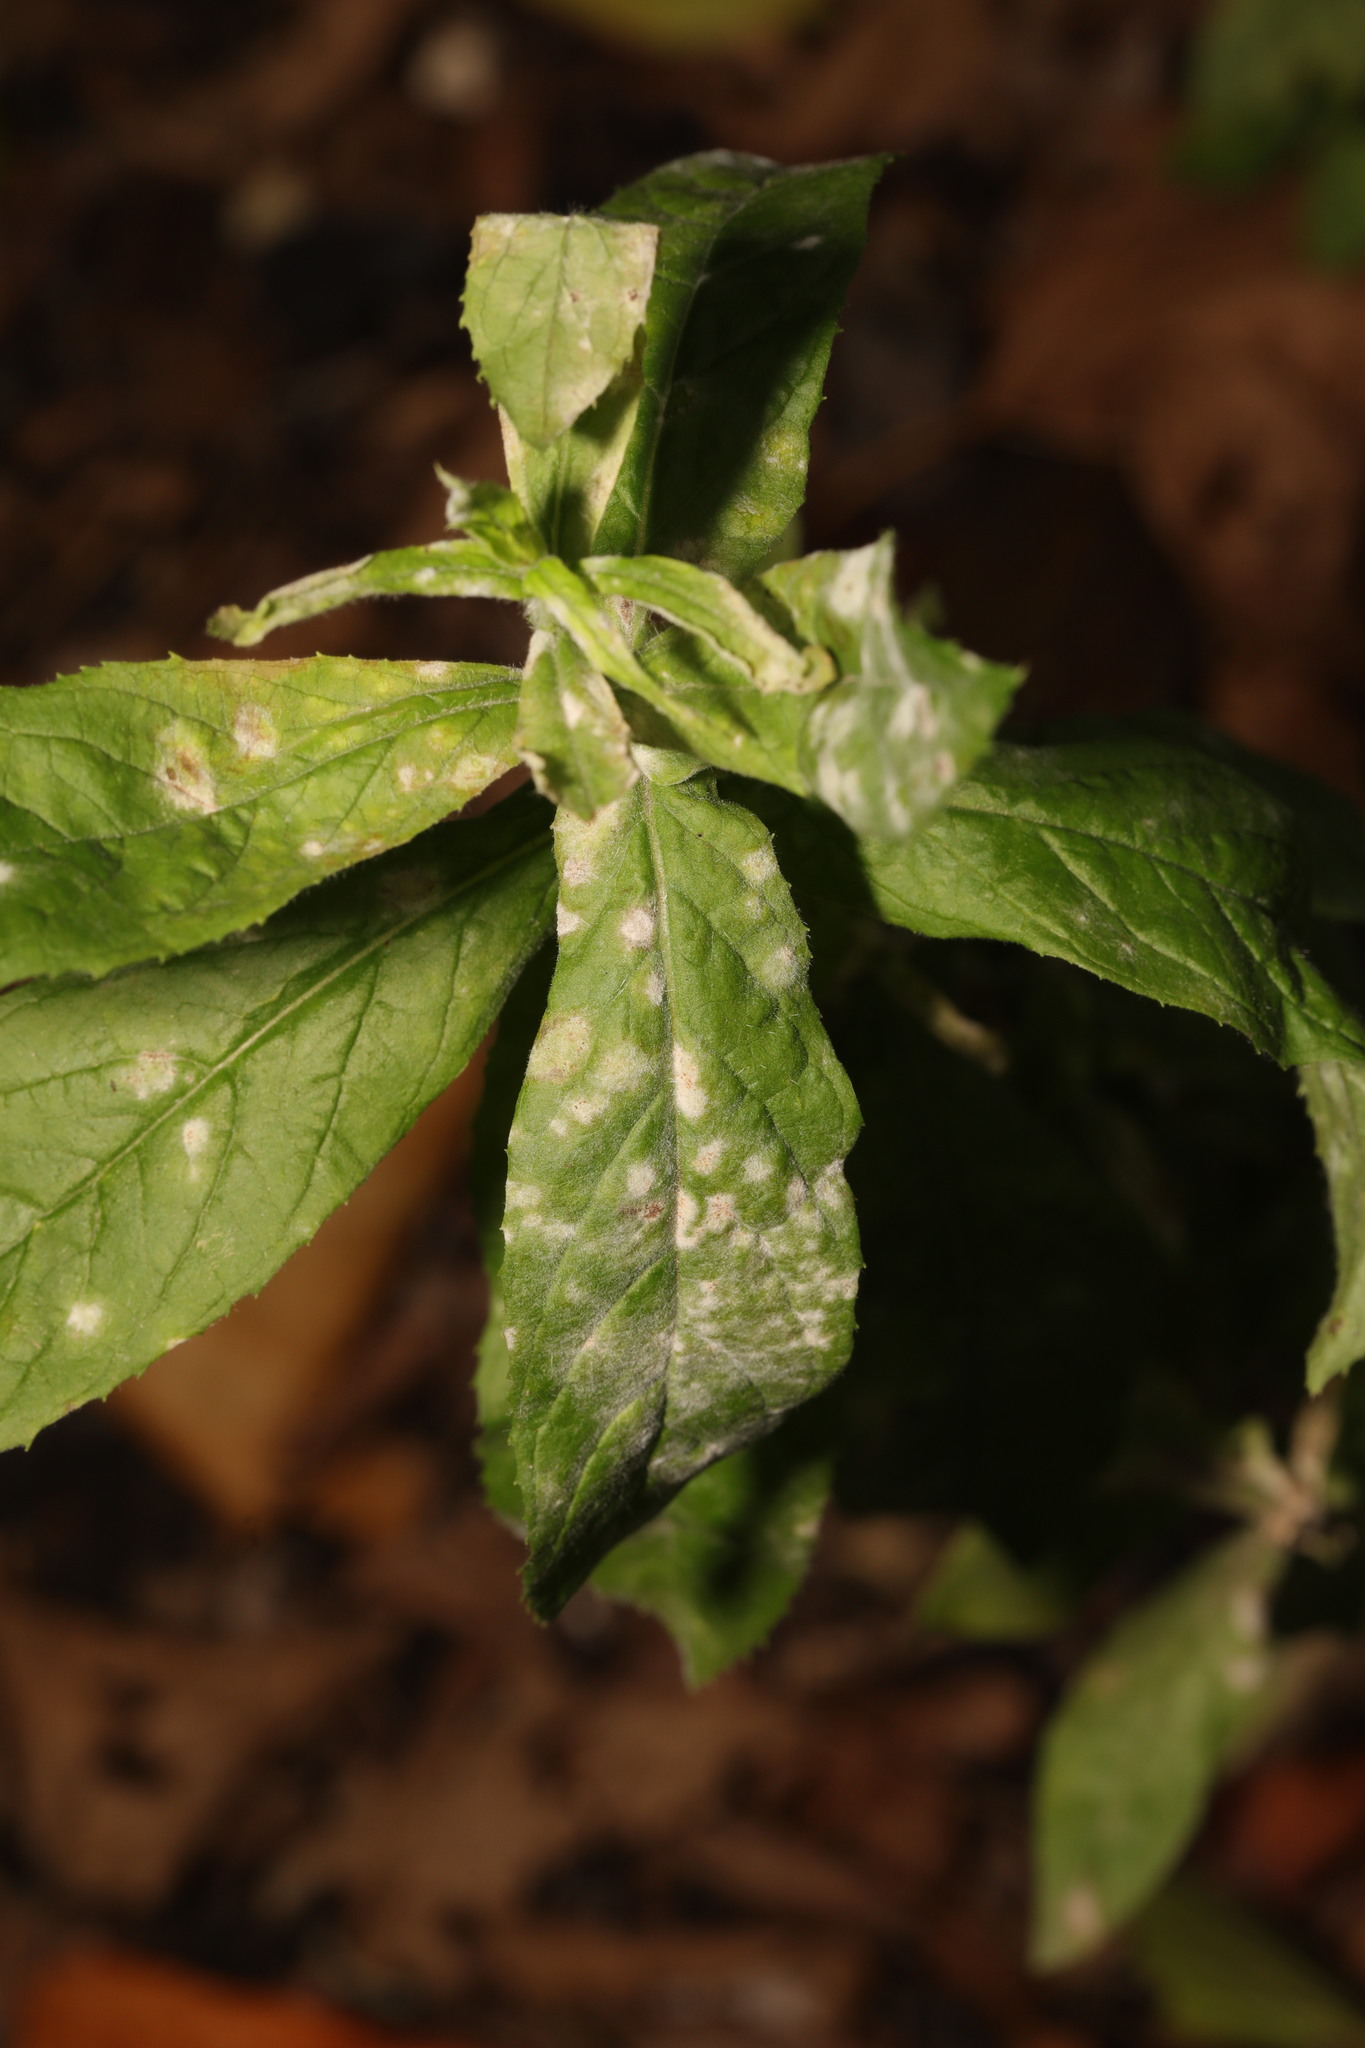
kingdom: Fungi
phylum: Ascomycota
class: Leotiomycetes
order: Helotiales
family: Erysiphaceae
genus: Podosphaera
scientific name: Podosphaera epilobii
